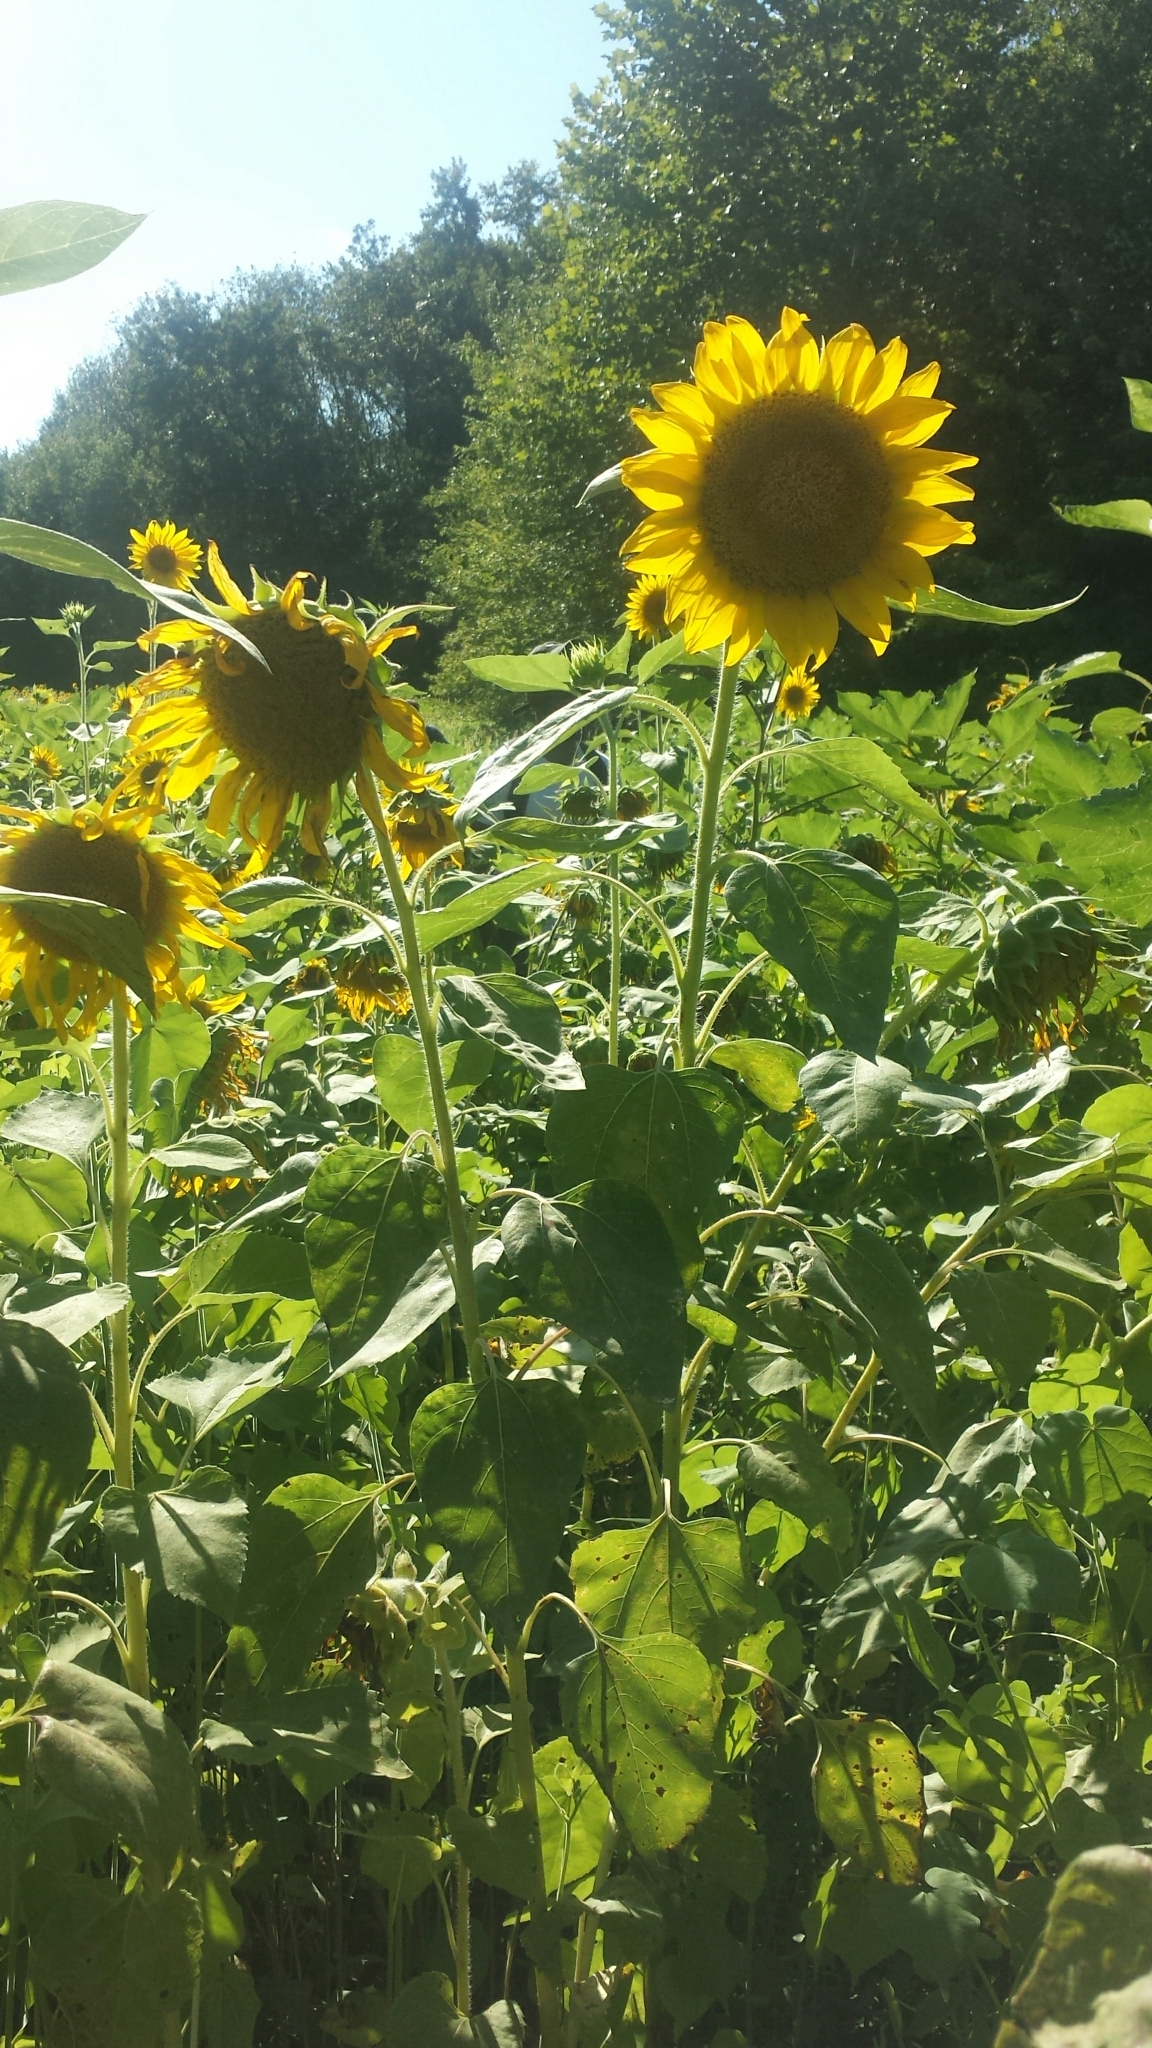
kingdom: Plantae
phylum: Tracheophyta
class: Magnoliopsida
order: Asterales
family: Asteraceae
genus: Helianthus
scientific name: Helianthus annuus
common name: Sunflower
